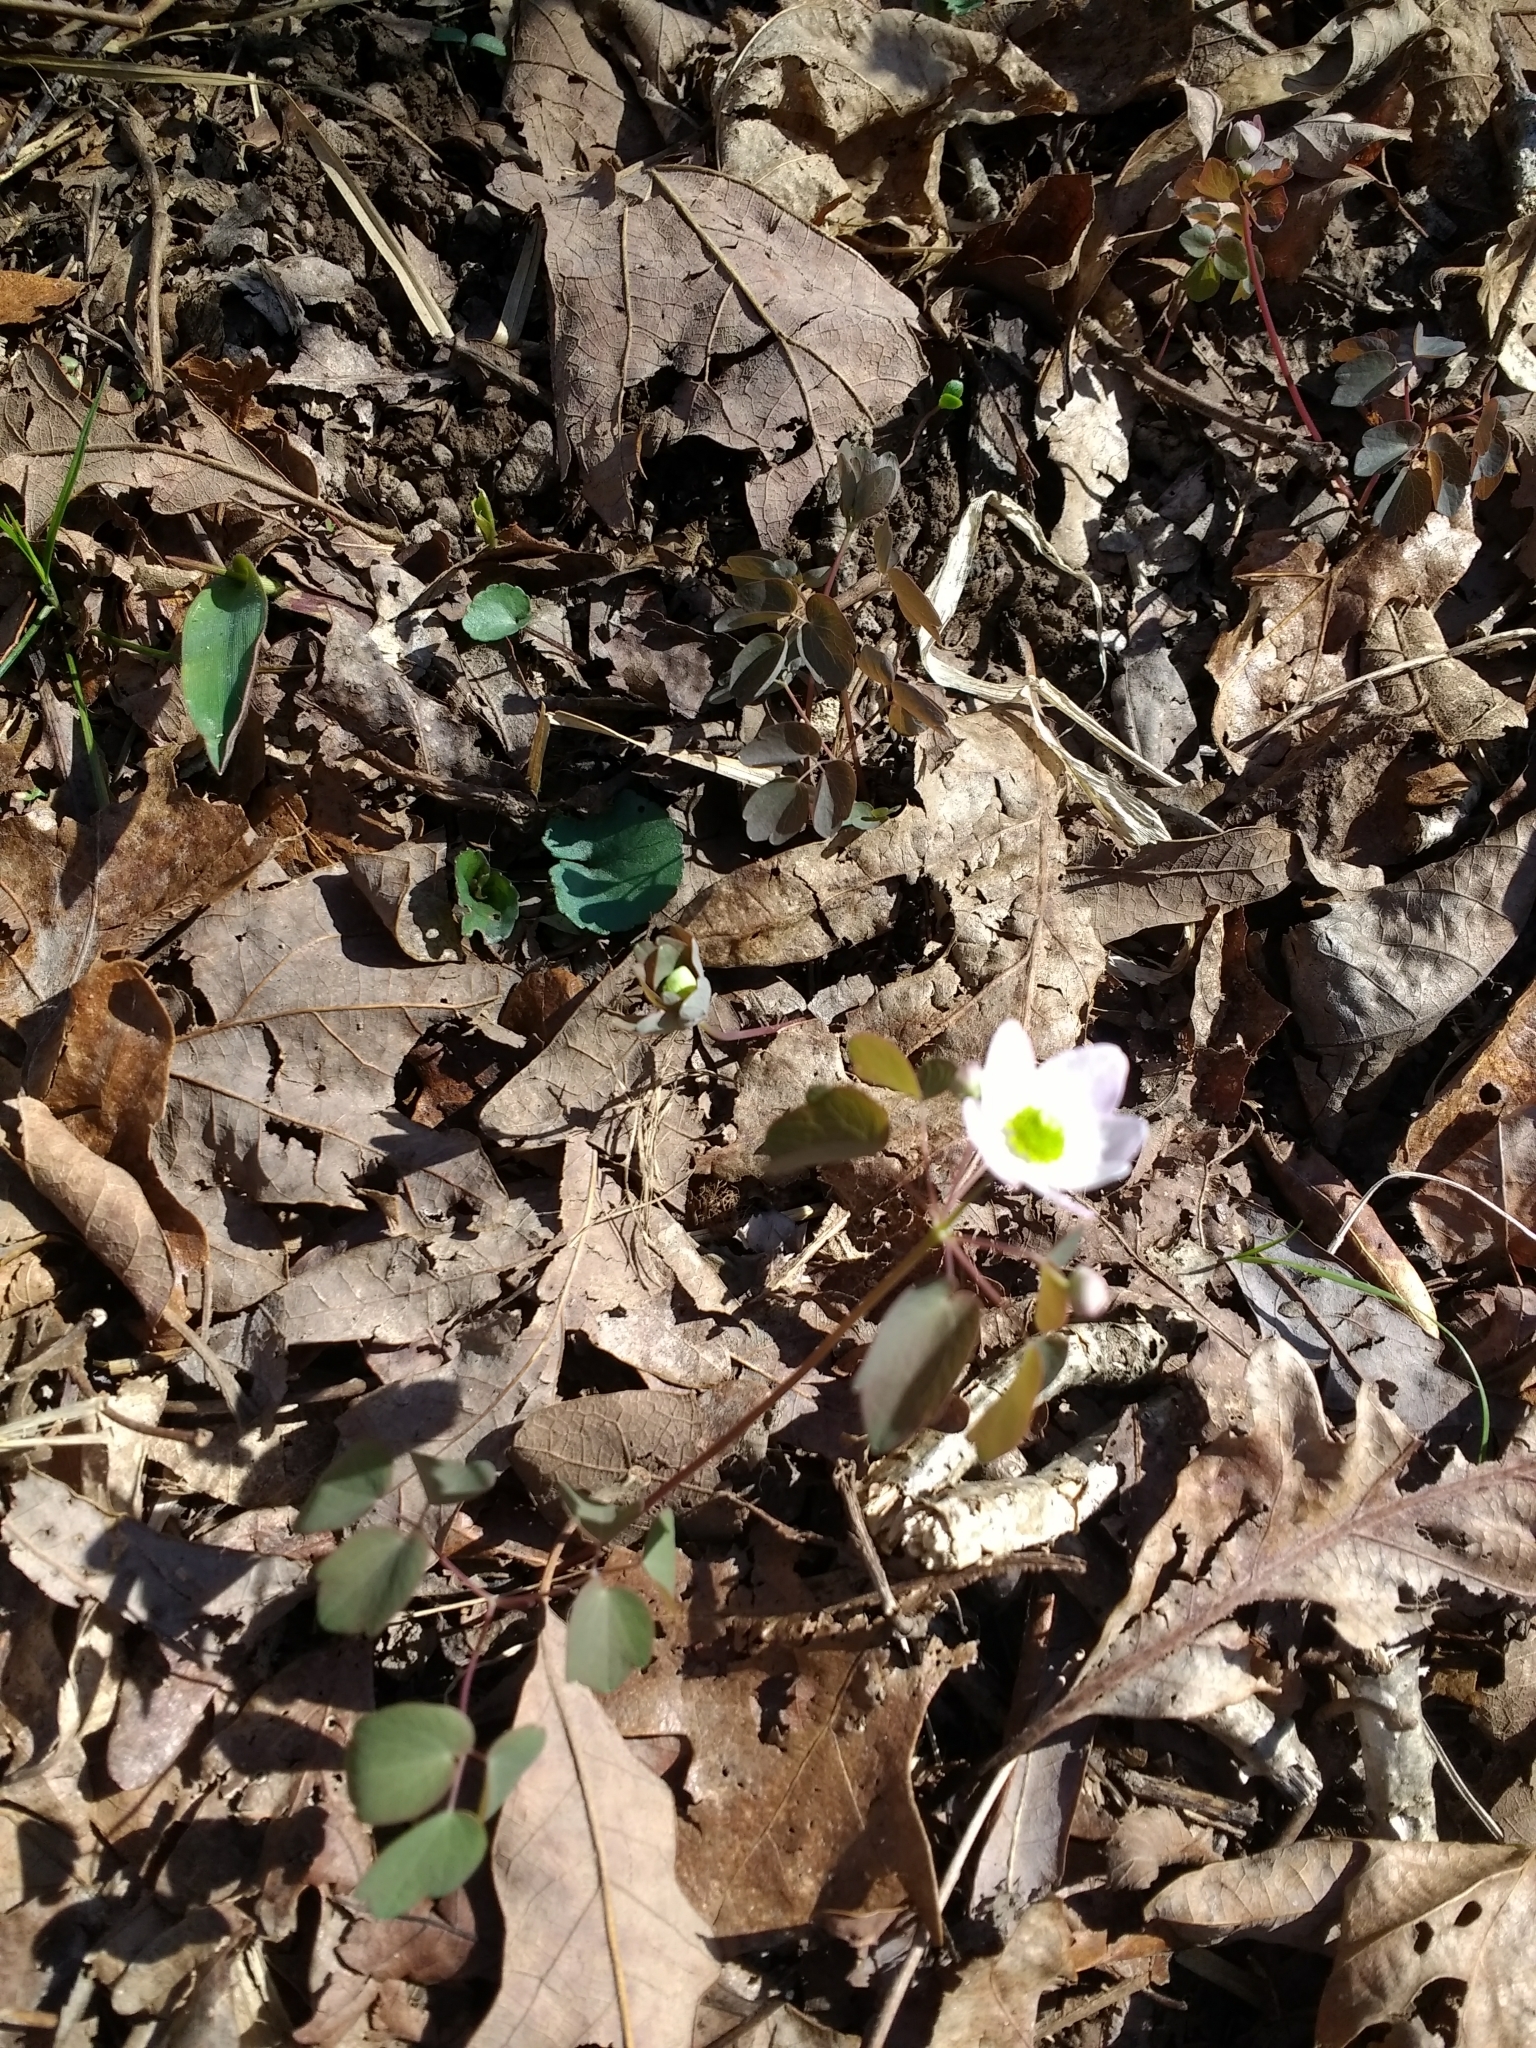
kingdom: Plantae
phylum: Tracheophyta
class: Magnoliopsida
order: Ranunculales
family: Ranunculaceae
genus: Thalictrum
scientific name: Thalictrum thalictroides
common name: Rue-anemone
